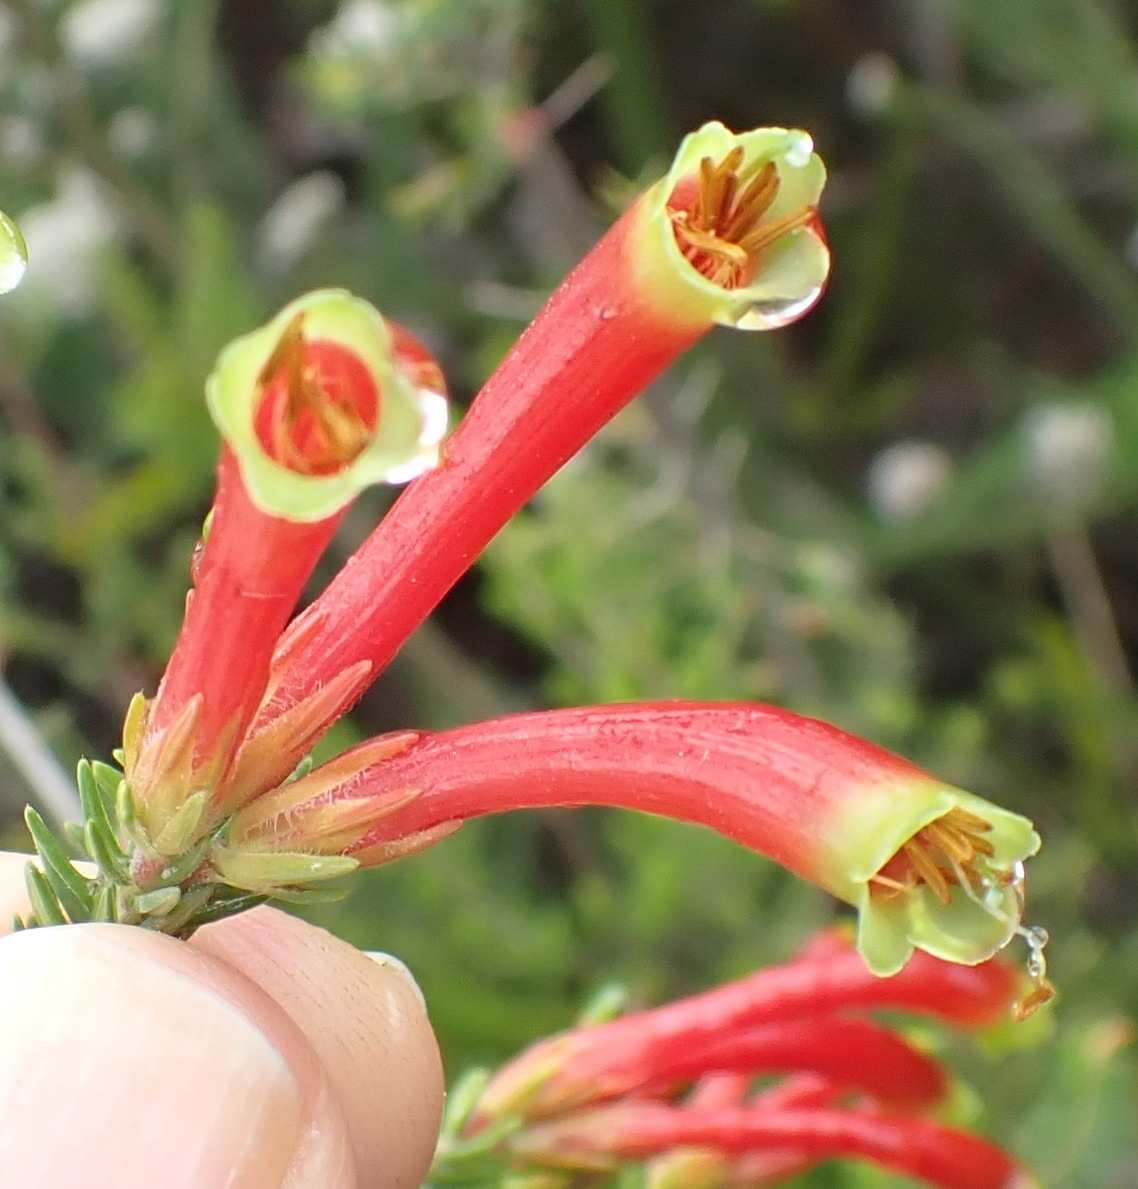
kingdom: Plantae
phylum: Tracheophyta
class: Magnoliopsida
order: Ericales
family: Ericaceae
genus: Erica
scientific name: Erica discolor
